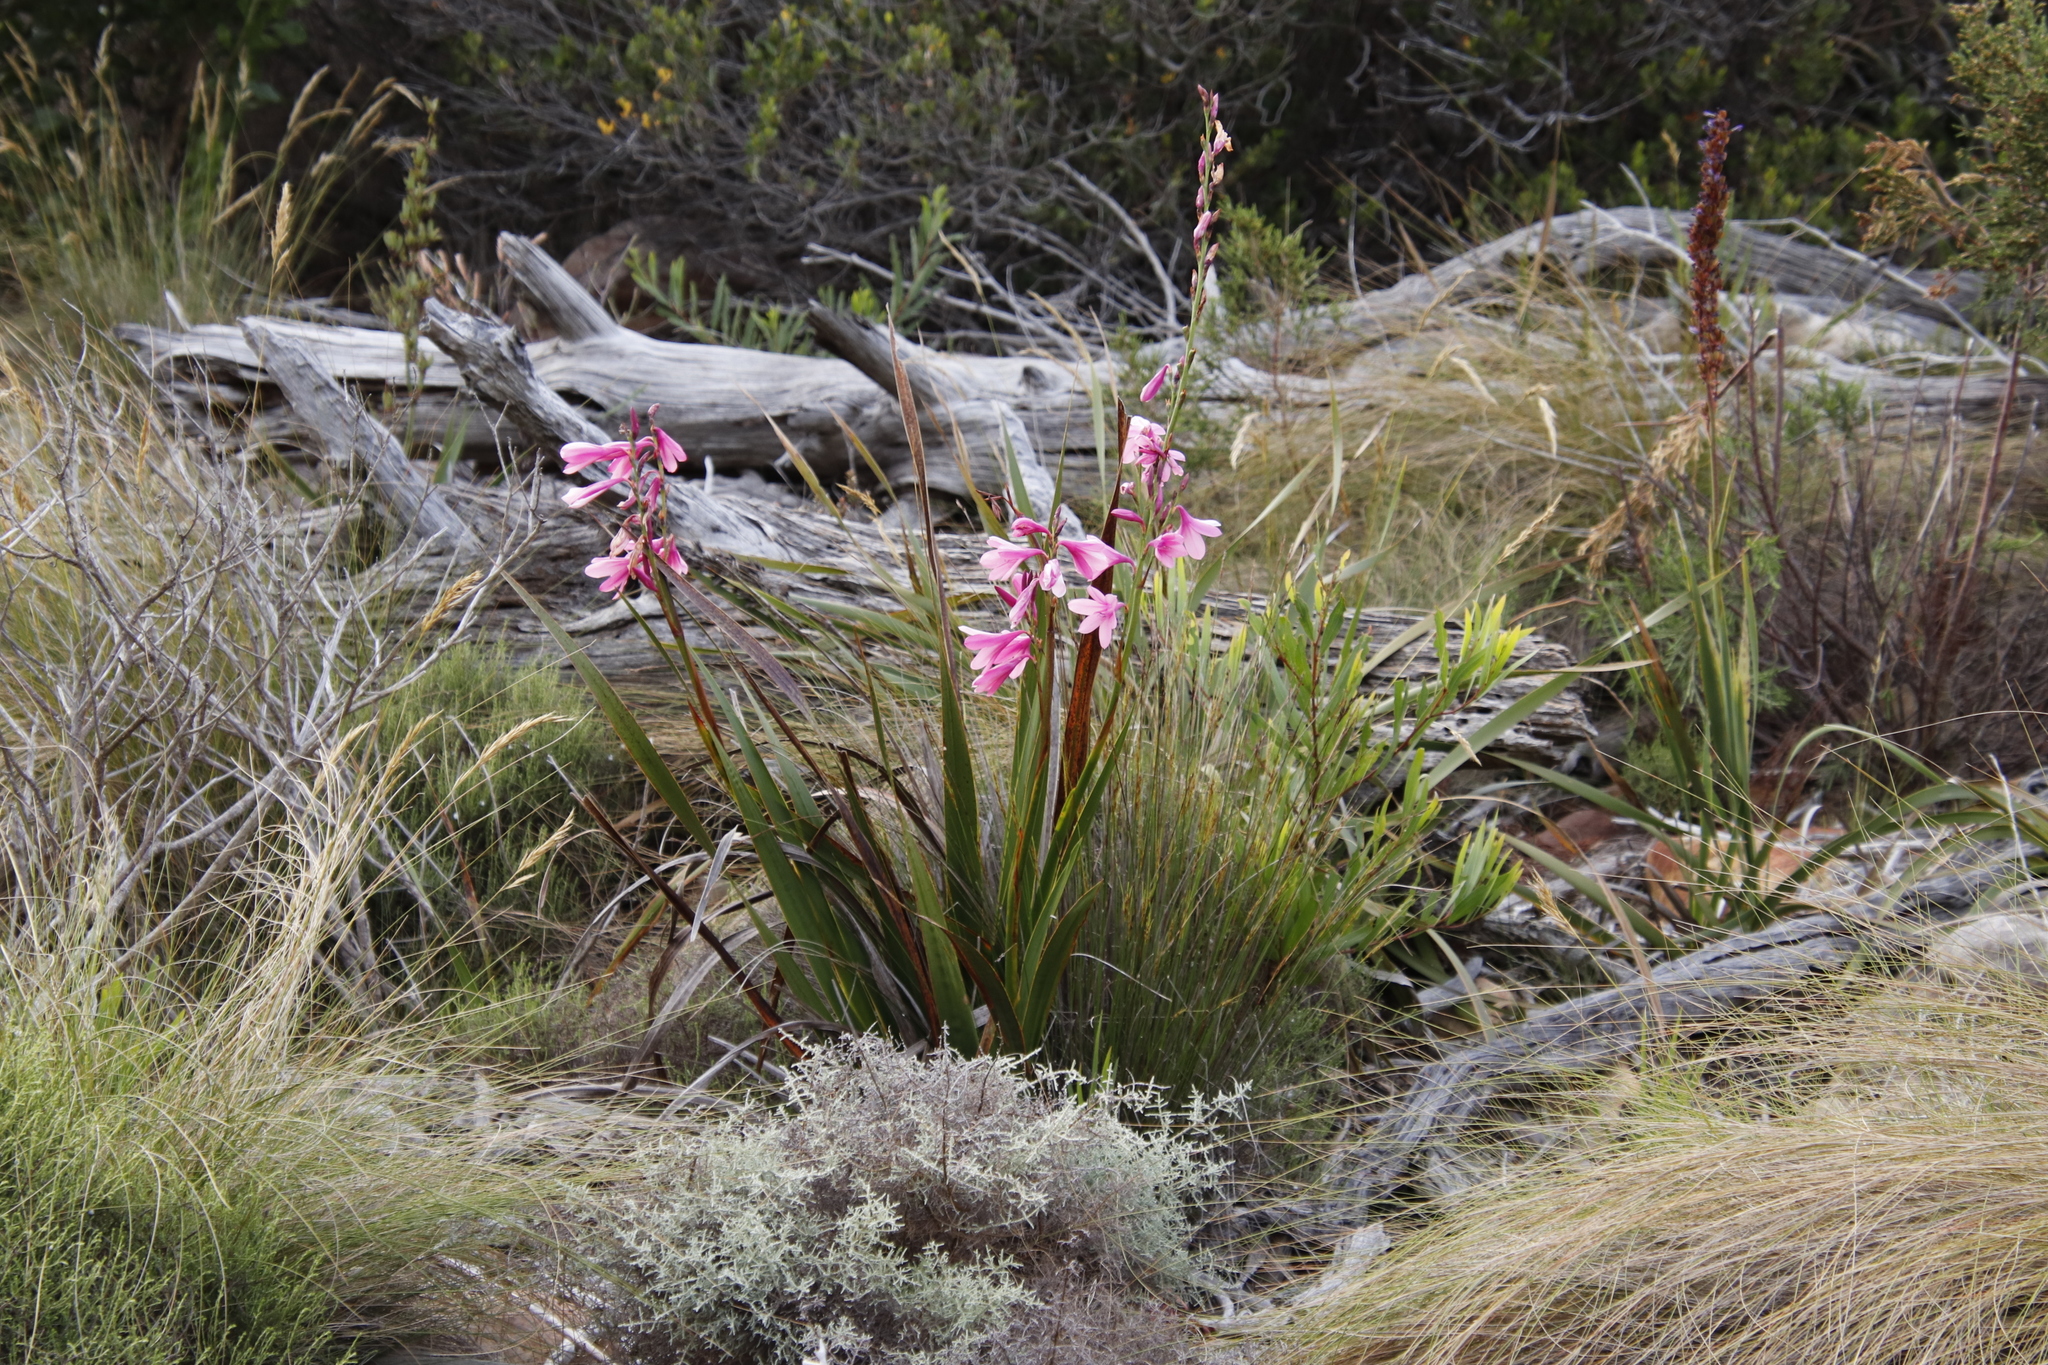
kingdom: Plantae
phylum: Tracheophyta
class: Liliopsida
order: Asparagales
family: Iridaceae
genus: Watsonia
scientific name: Watsonia borbonica
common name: Bugle-lily
